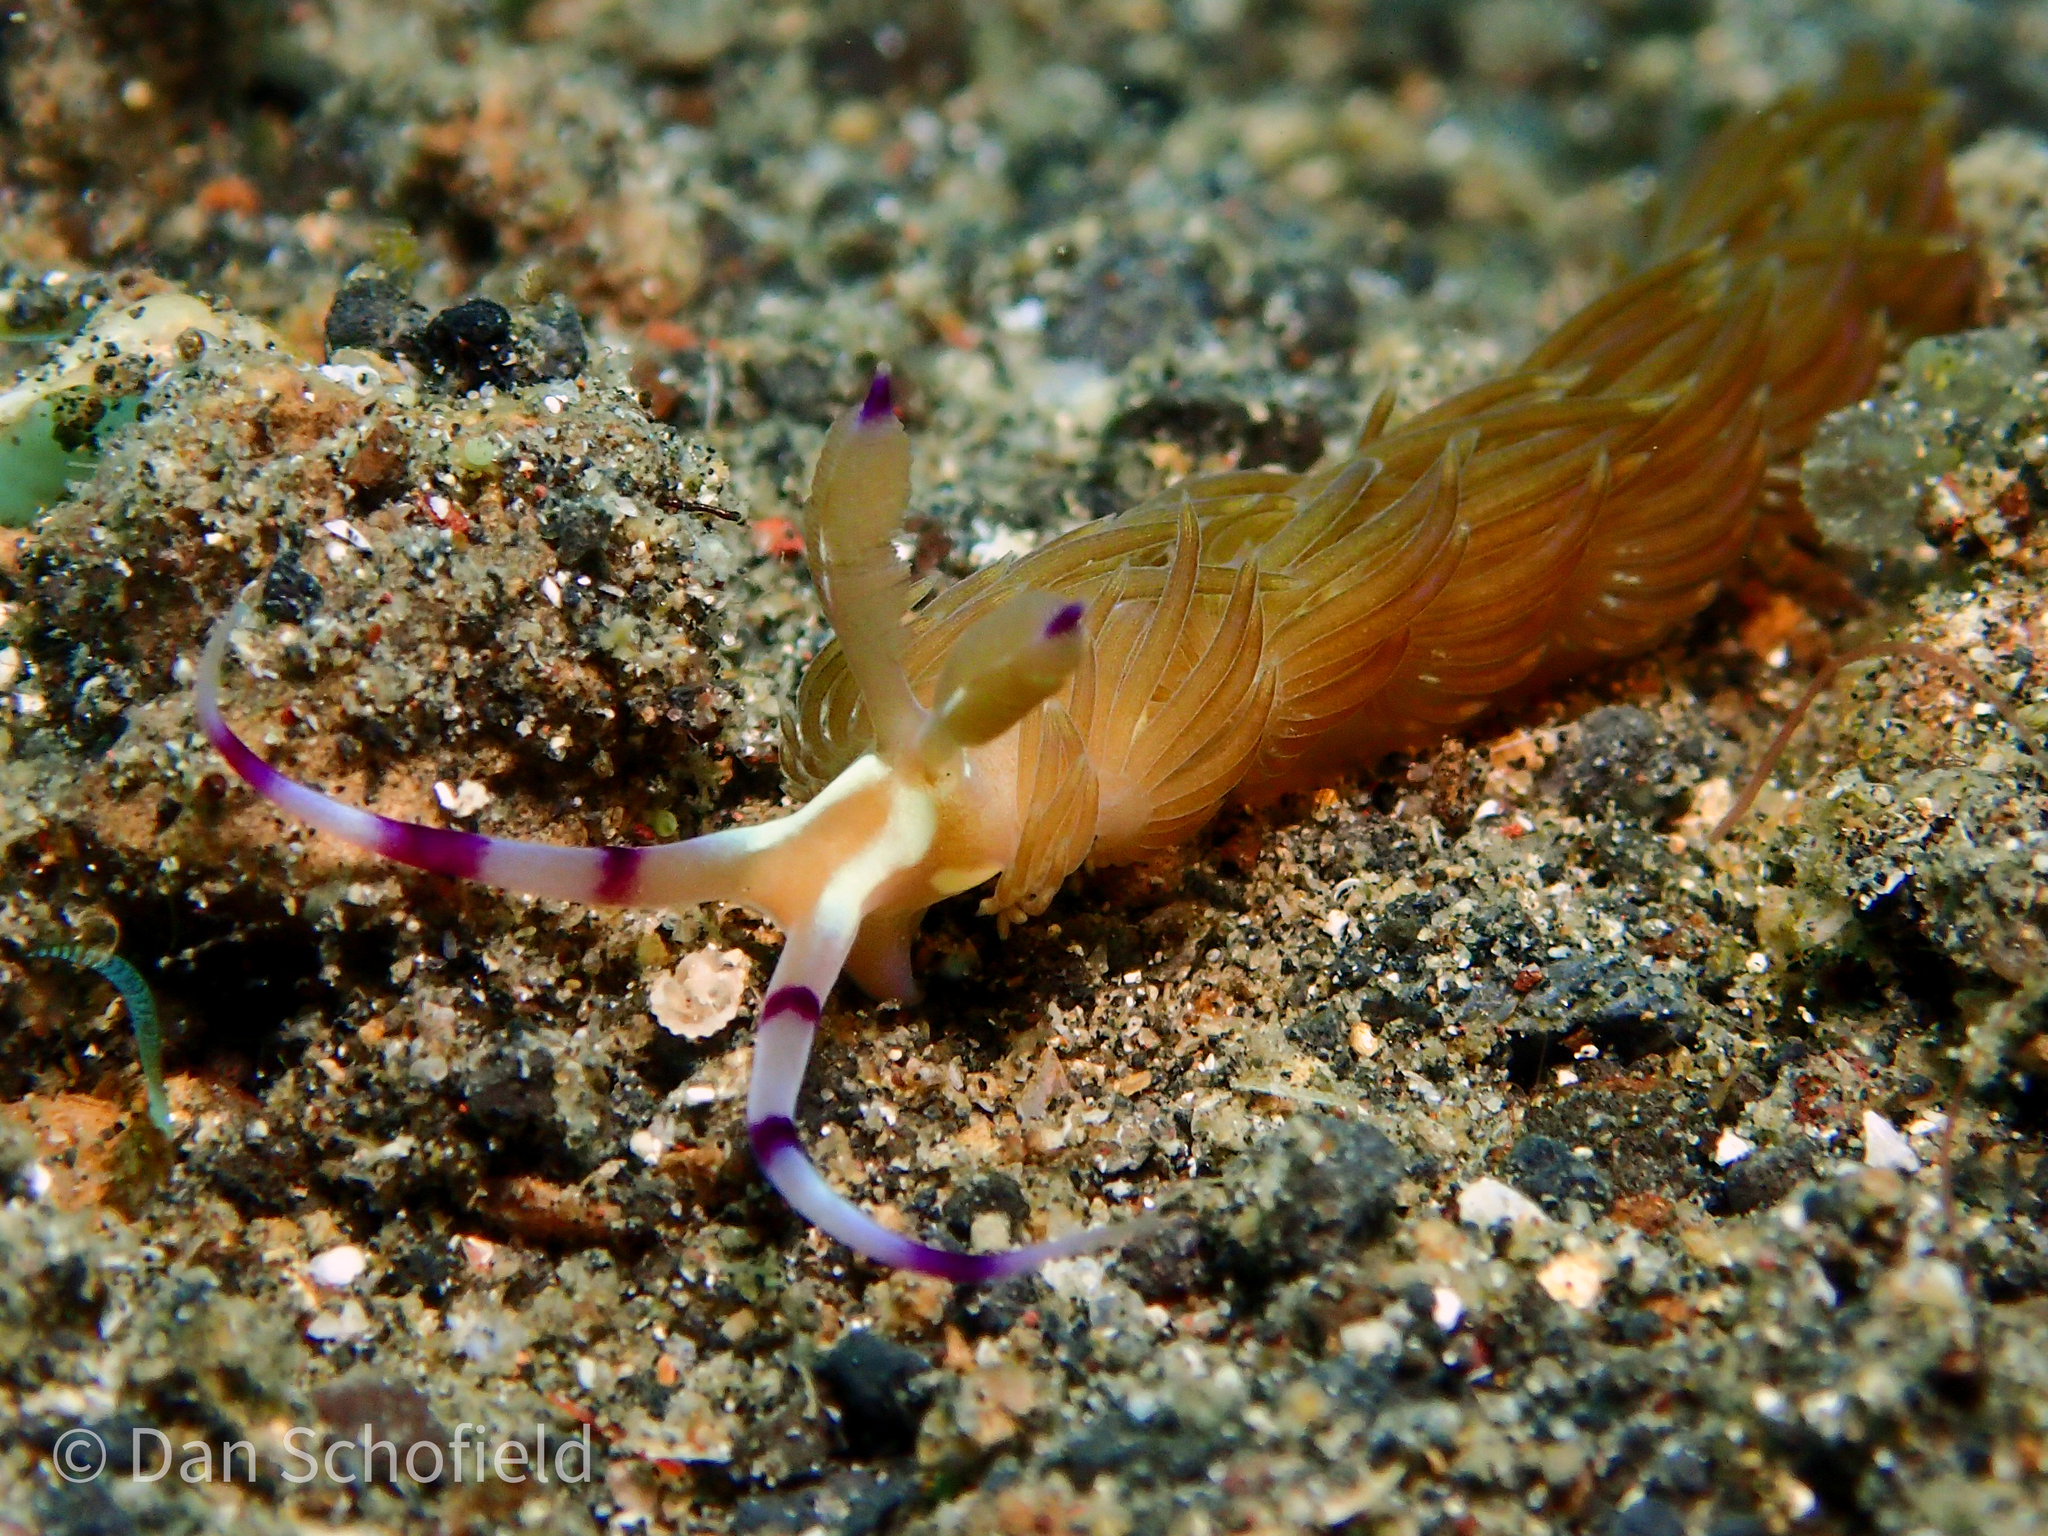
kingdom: Animalia
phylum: Mollusca
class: Gastropoda
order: Nudibranchia
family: Facelinidae
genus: Pteraeolidia
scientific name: Pteraeolidia semperi
